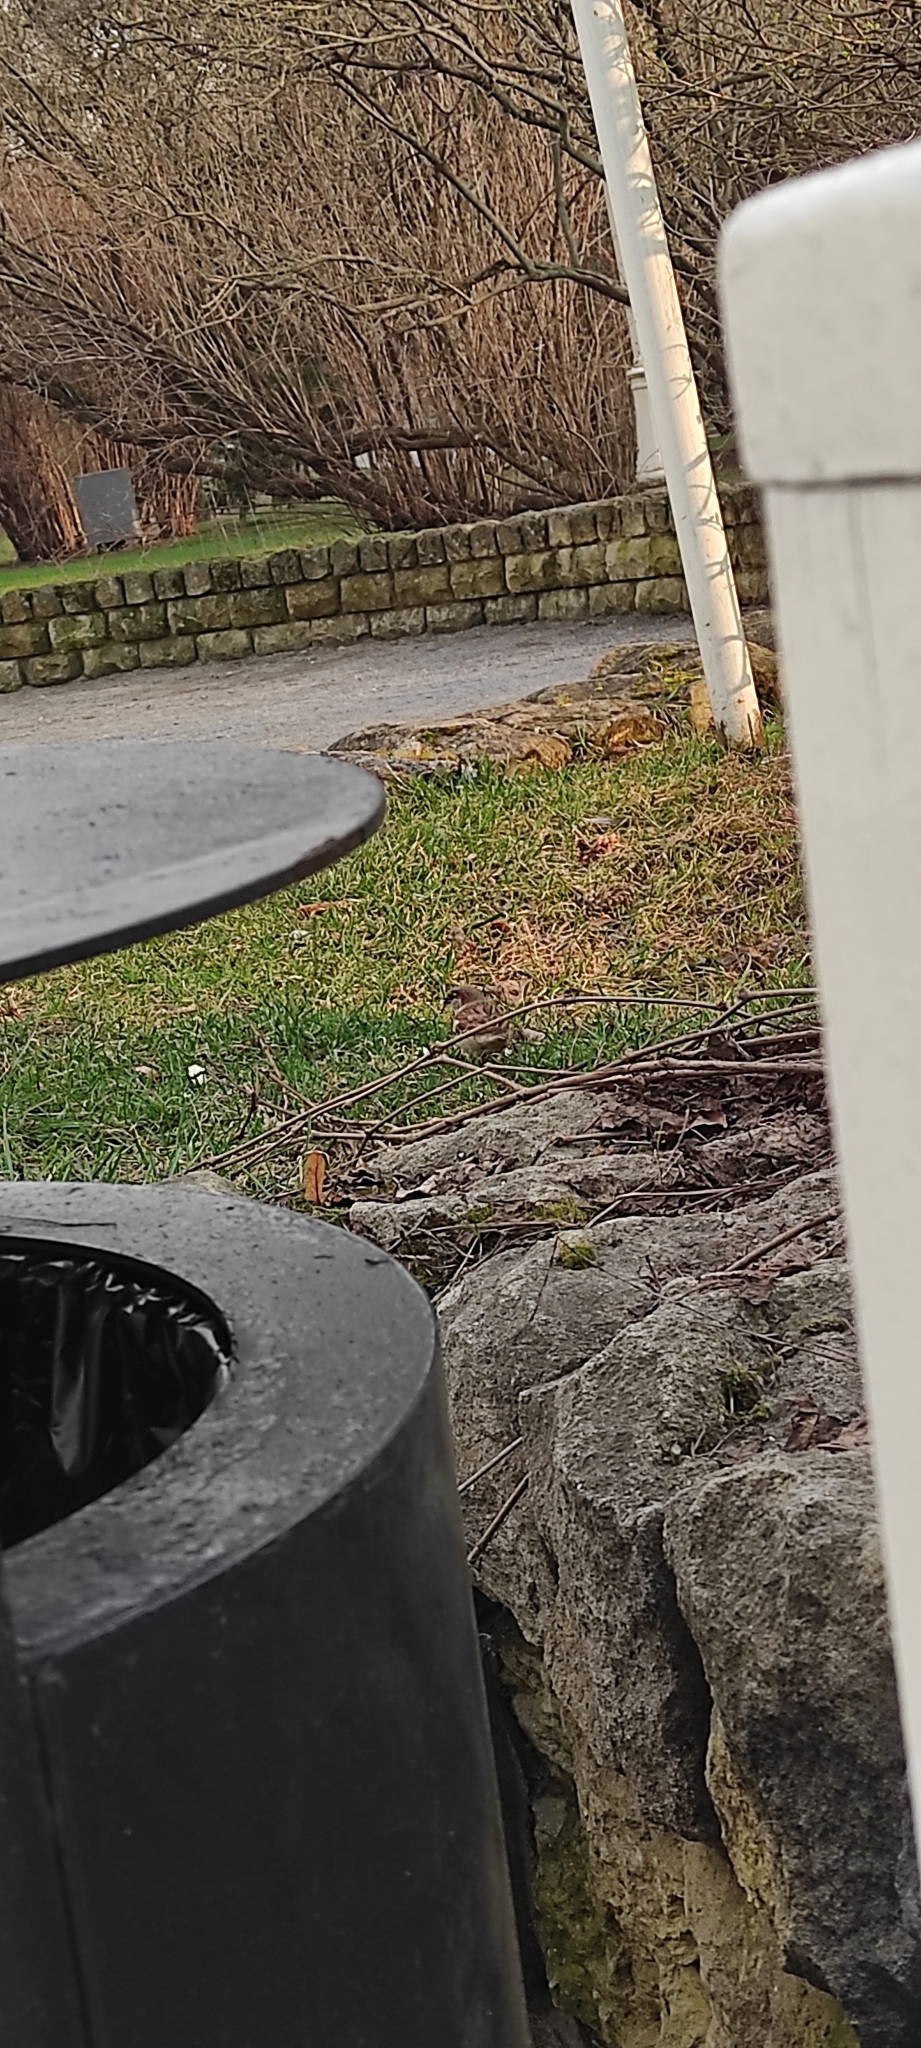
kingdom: Animalia
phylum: Chordata
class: Aves
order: Passeriformes
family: Passeridae
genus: Passer
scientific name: Passer domesticus
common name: House sparrow
